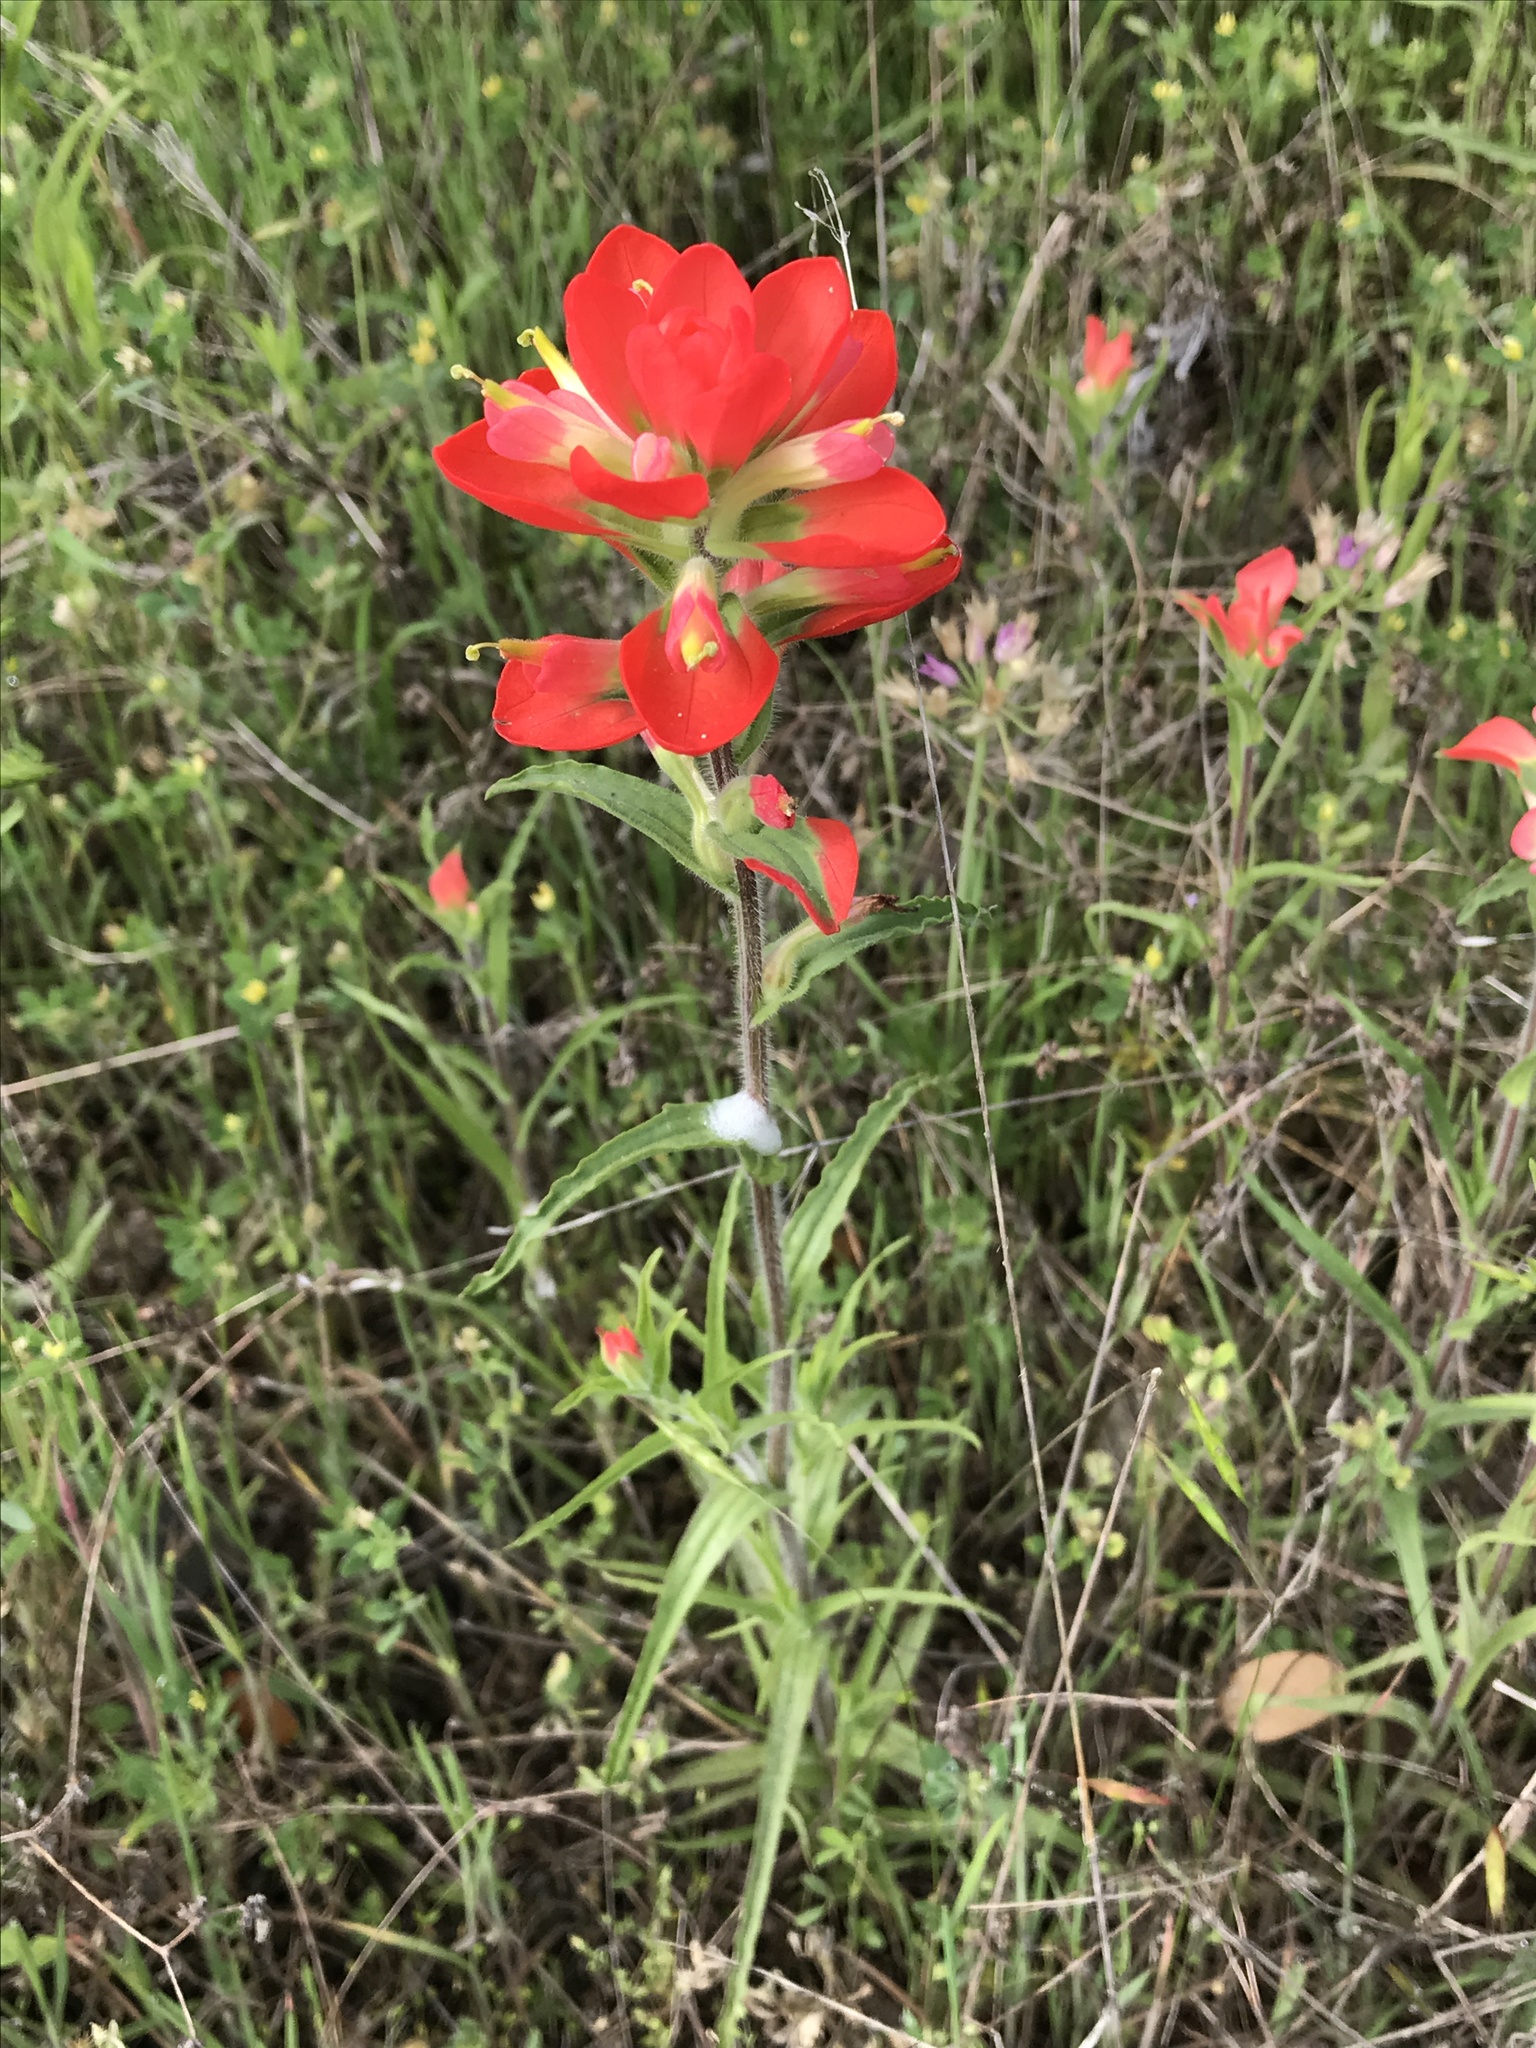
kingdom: Plantae
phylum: Tracheophyta
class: Magnoliopsida
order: Lamiales
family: Orobanchaceae
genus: Castilleja
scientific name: Castilleja indivisa
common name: Texas paintbrush
